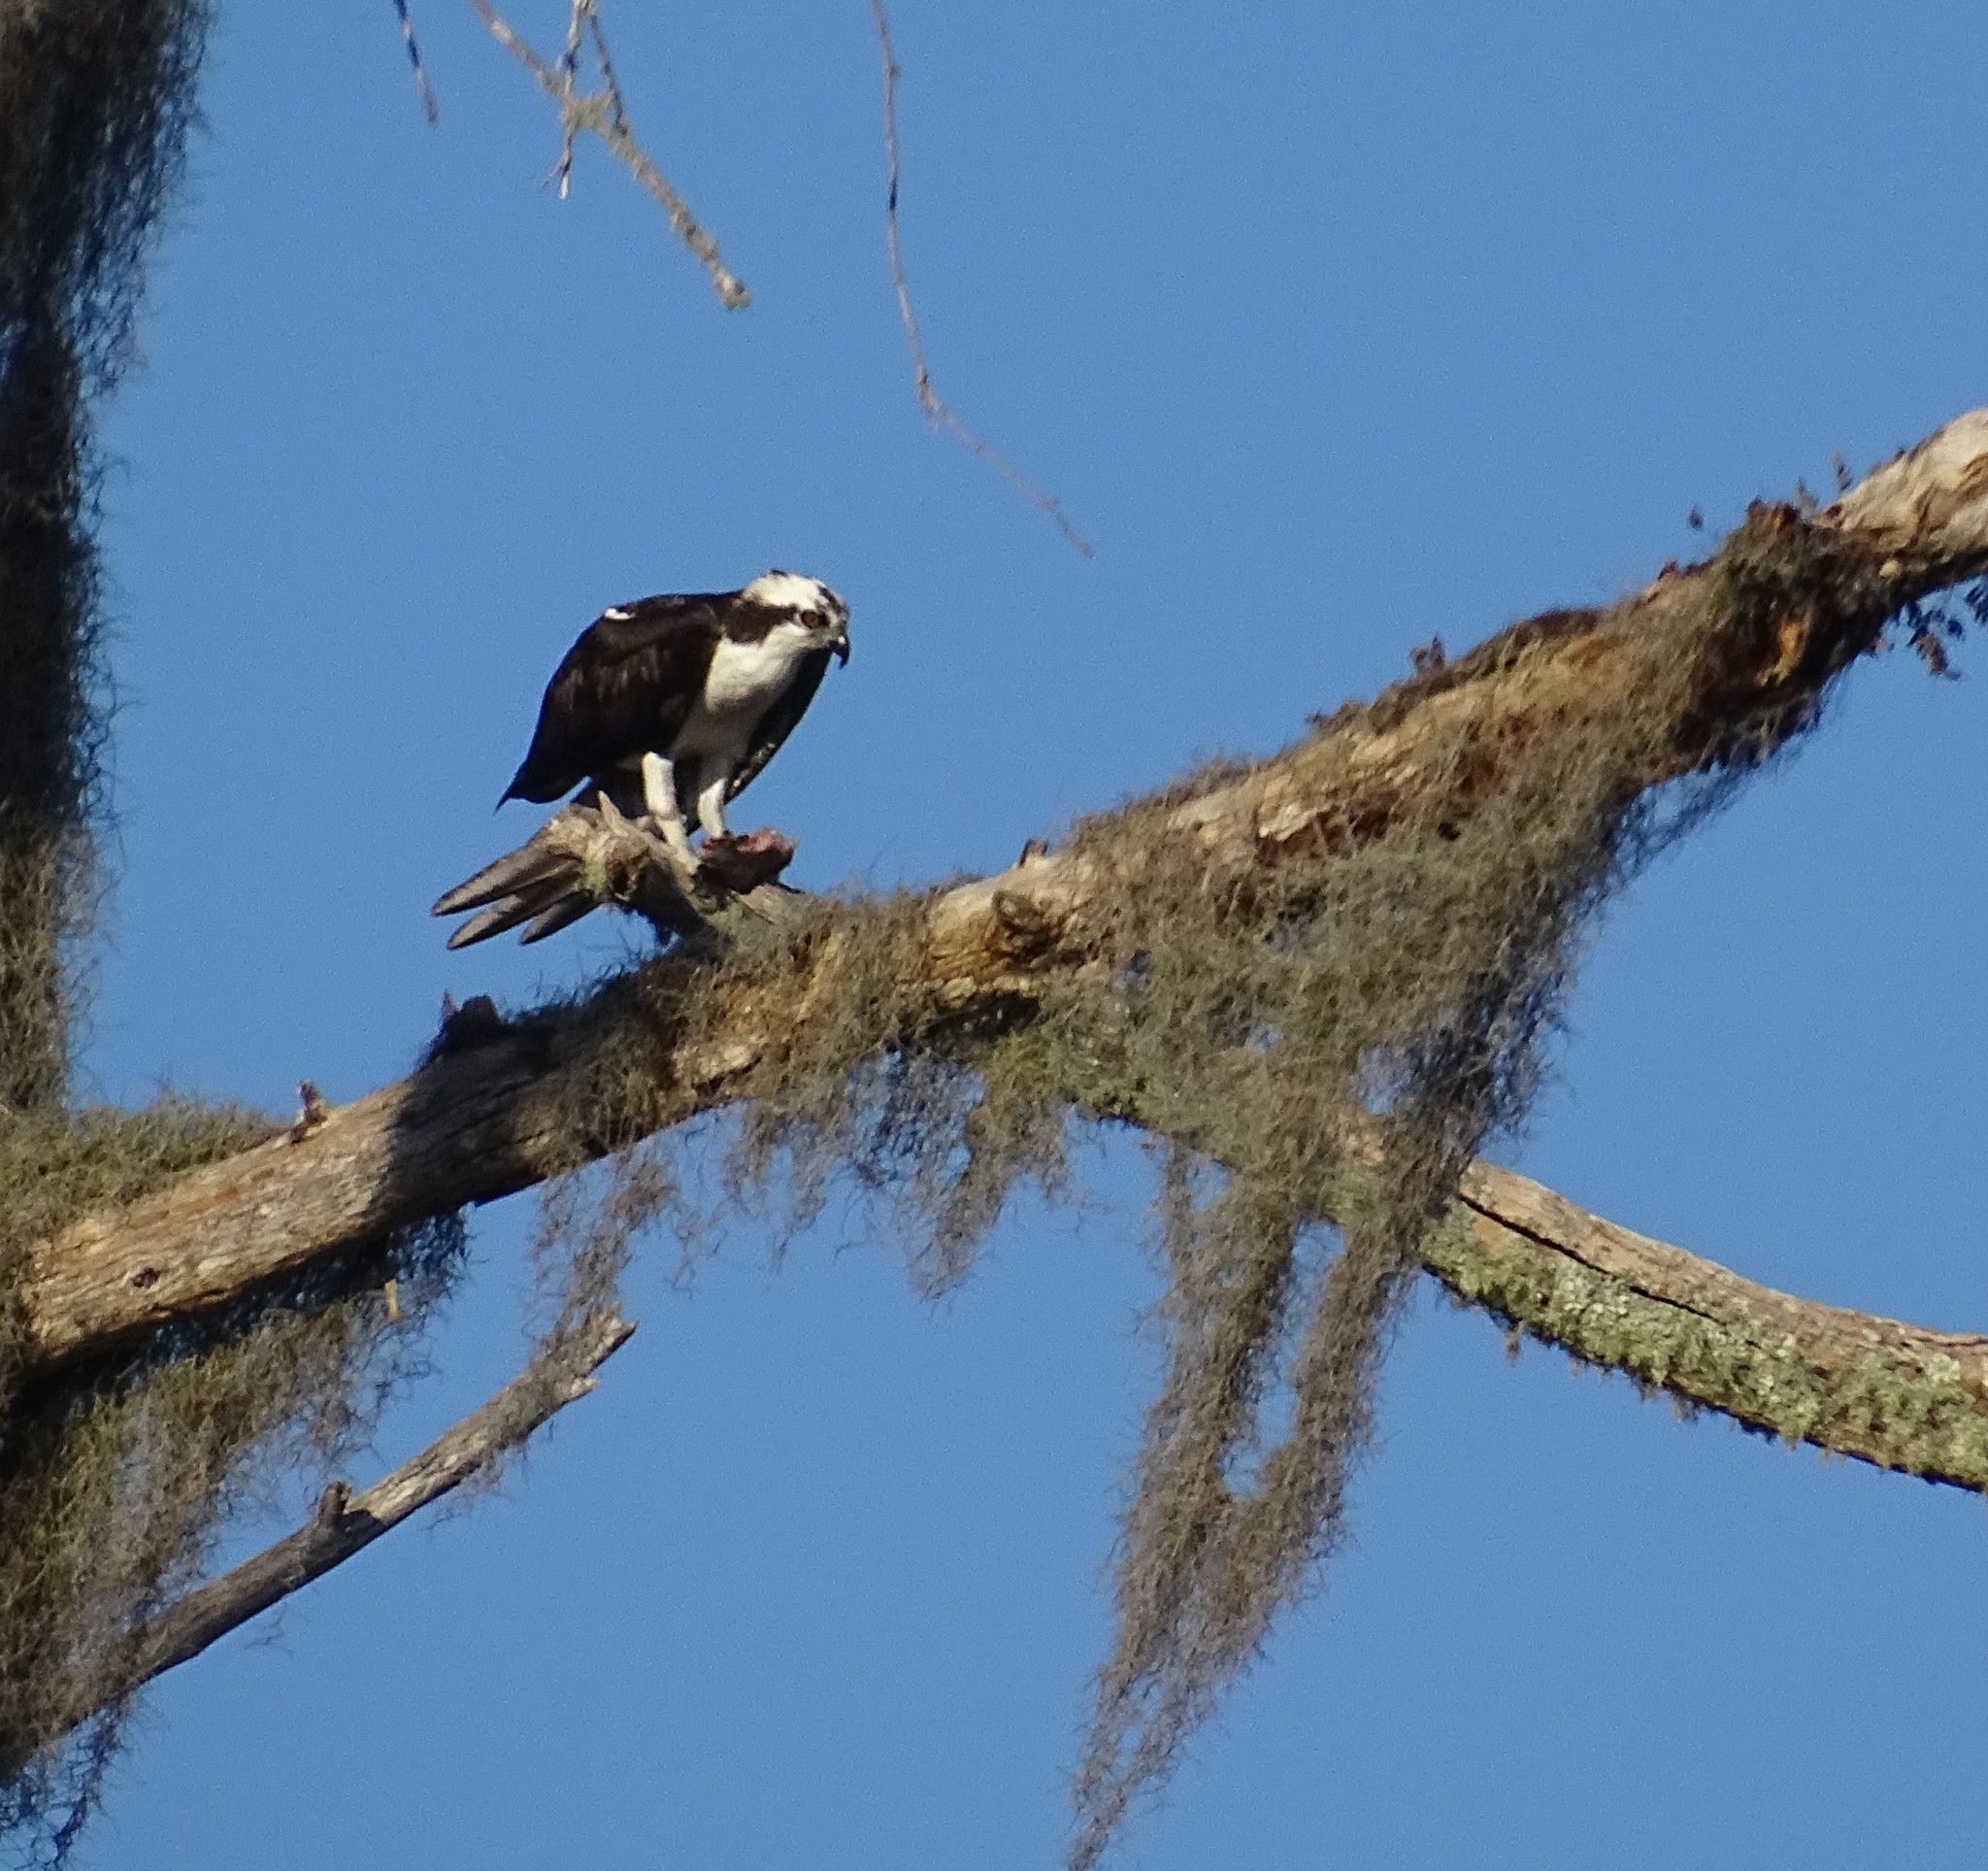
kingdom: Animalia
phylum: Chordata
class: Aves
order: Accipitriformes
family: Pandionidae
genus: Pandion
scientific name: Pandion haliaetus
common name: Osprey
